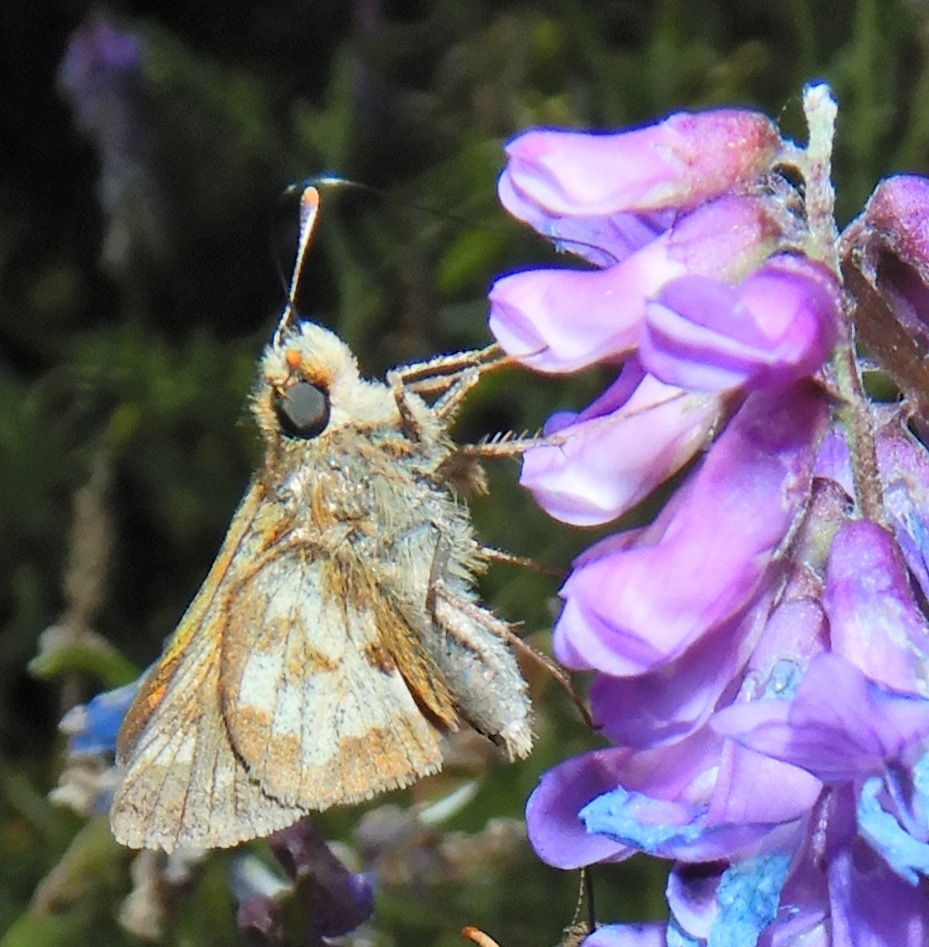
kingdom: Animalia
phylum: Arthropoda
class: Insecta
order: Lepidoptera
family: Hesperiidae
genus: Polites
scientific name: Polites coras
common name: Peck's skipper
